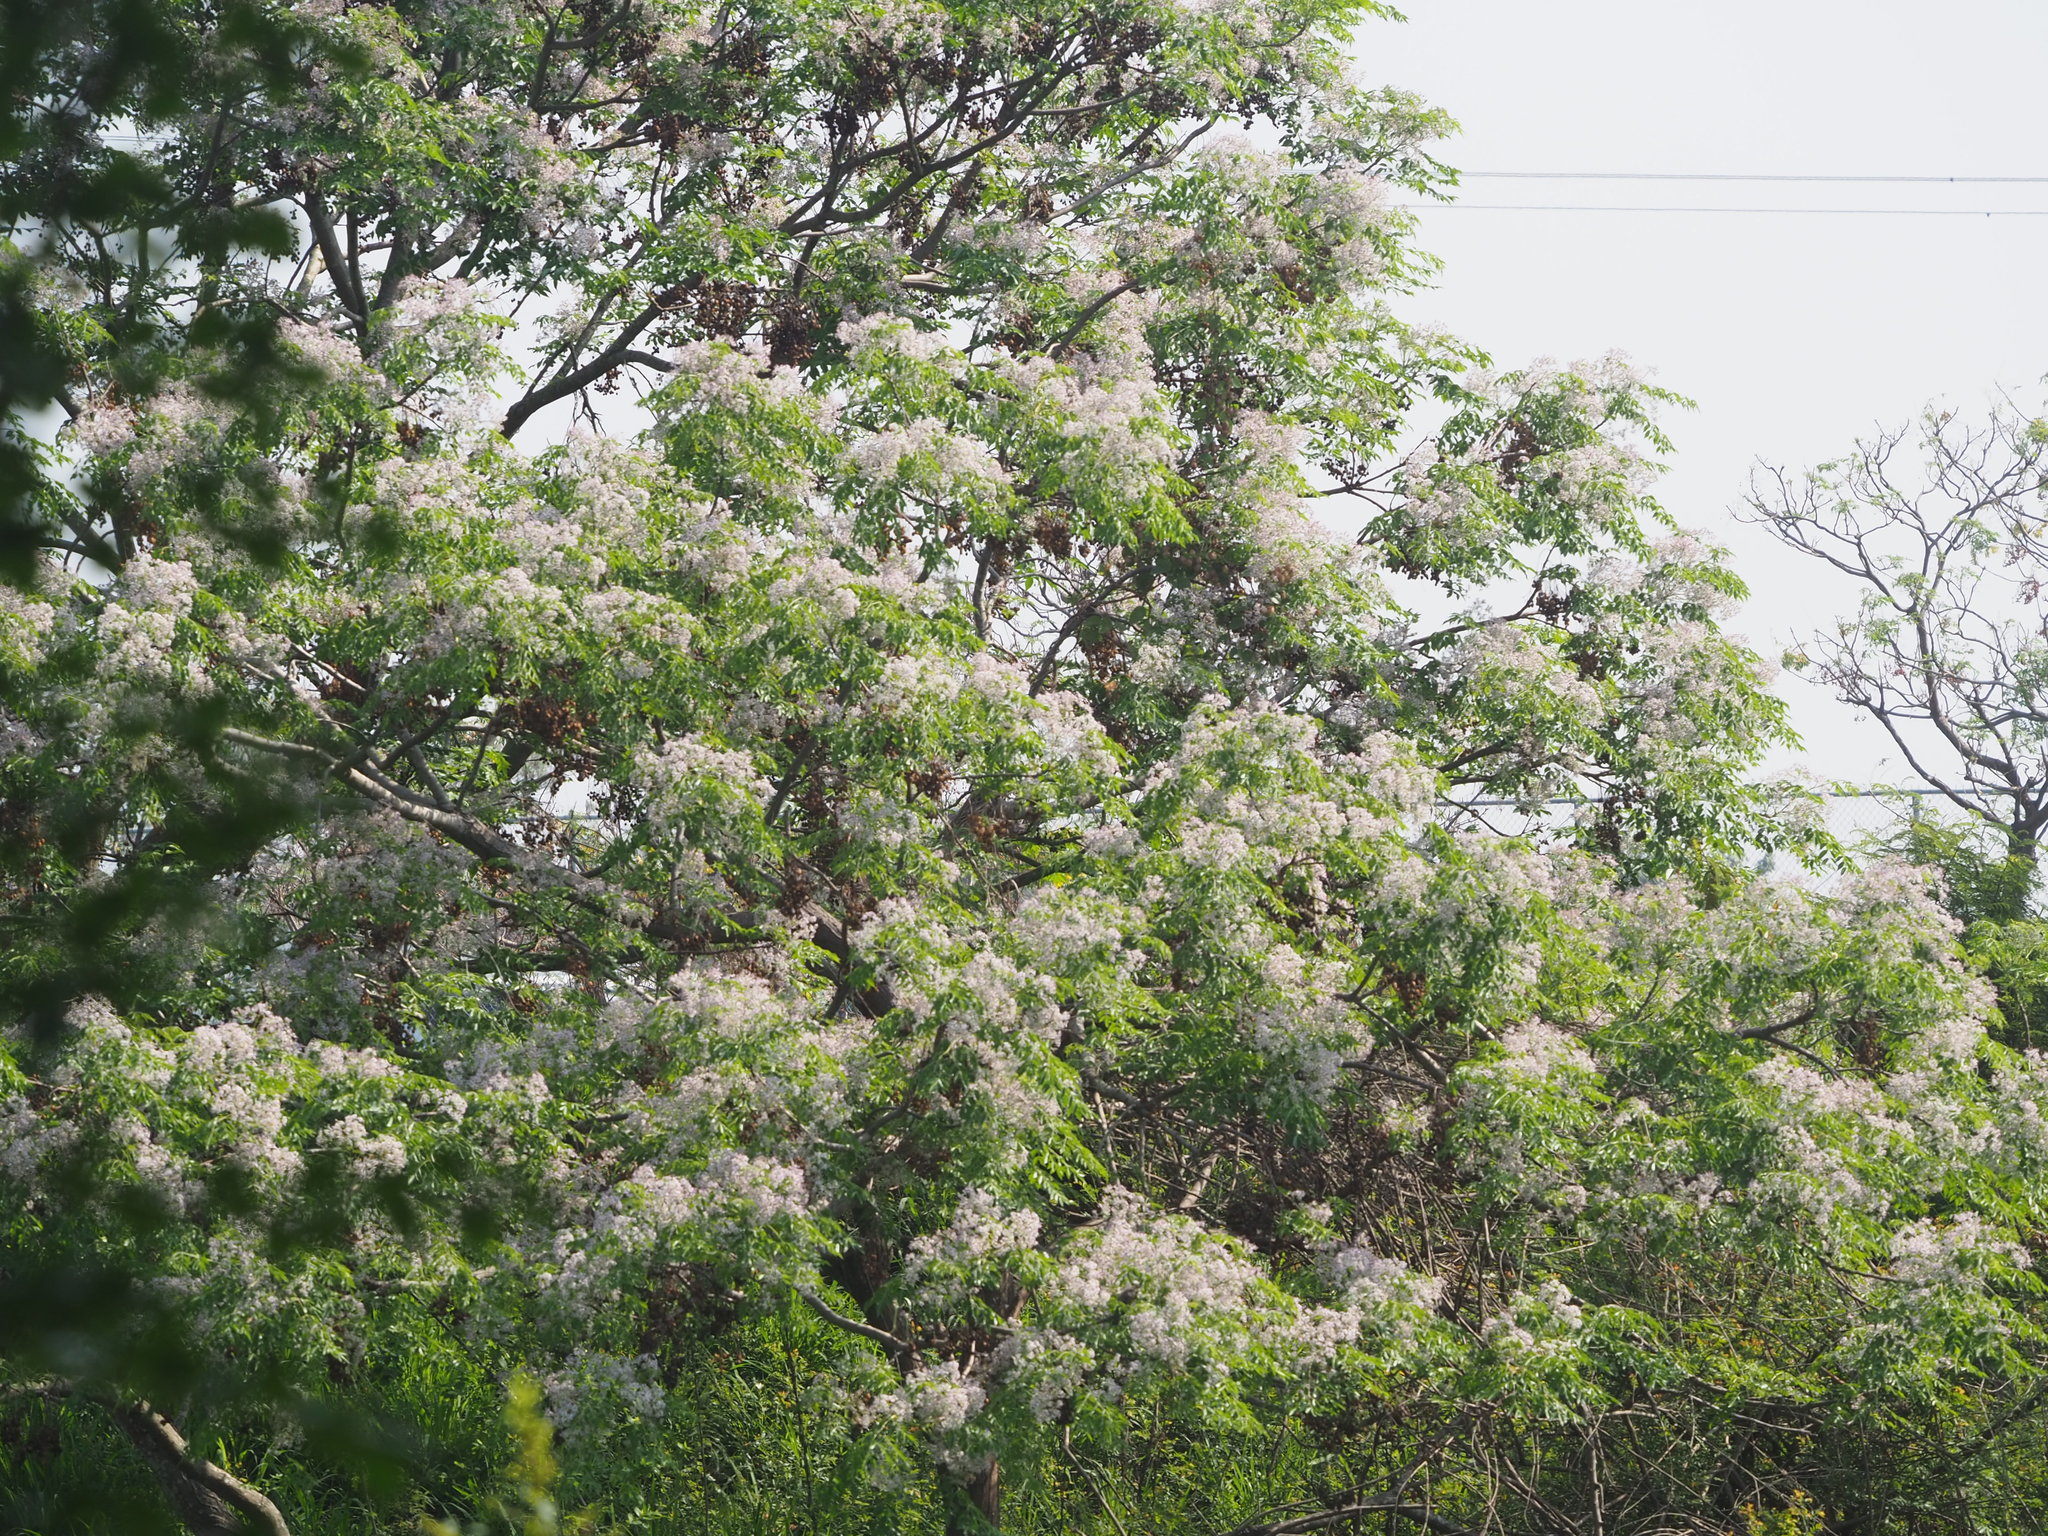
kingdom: Plantae
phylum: Tracheophyta
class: Magnoliopsida
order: Sapindales
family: Meliaceae
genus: Melia
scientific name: Melia azedarach
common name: Chinaberrytree
